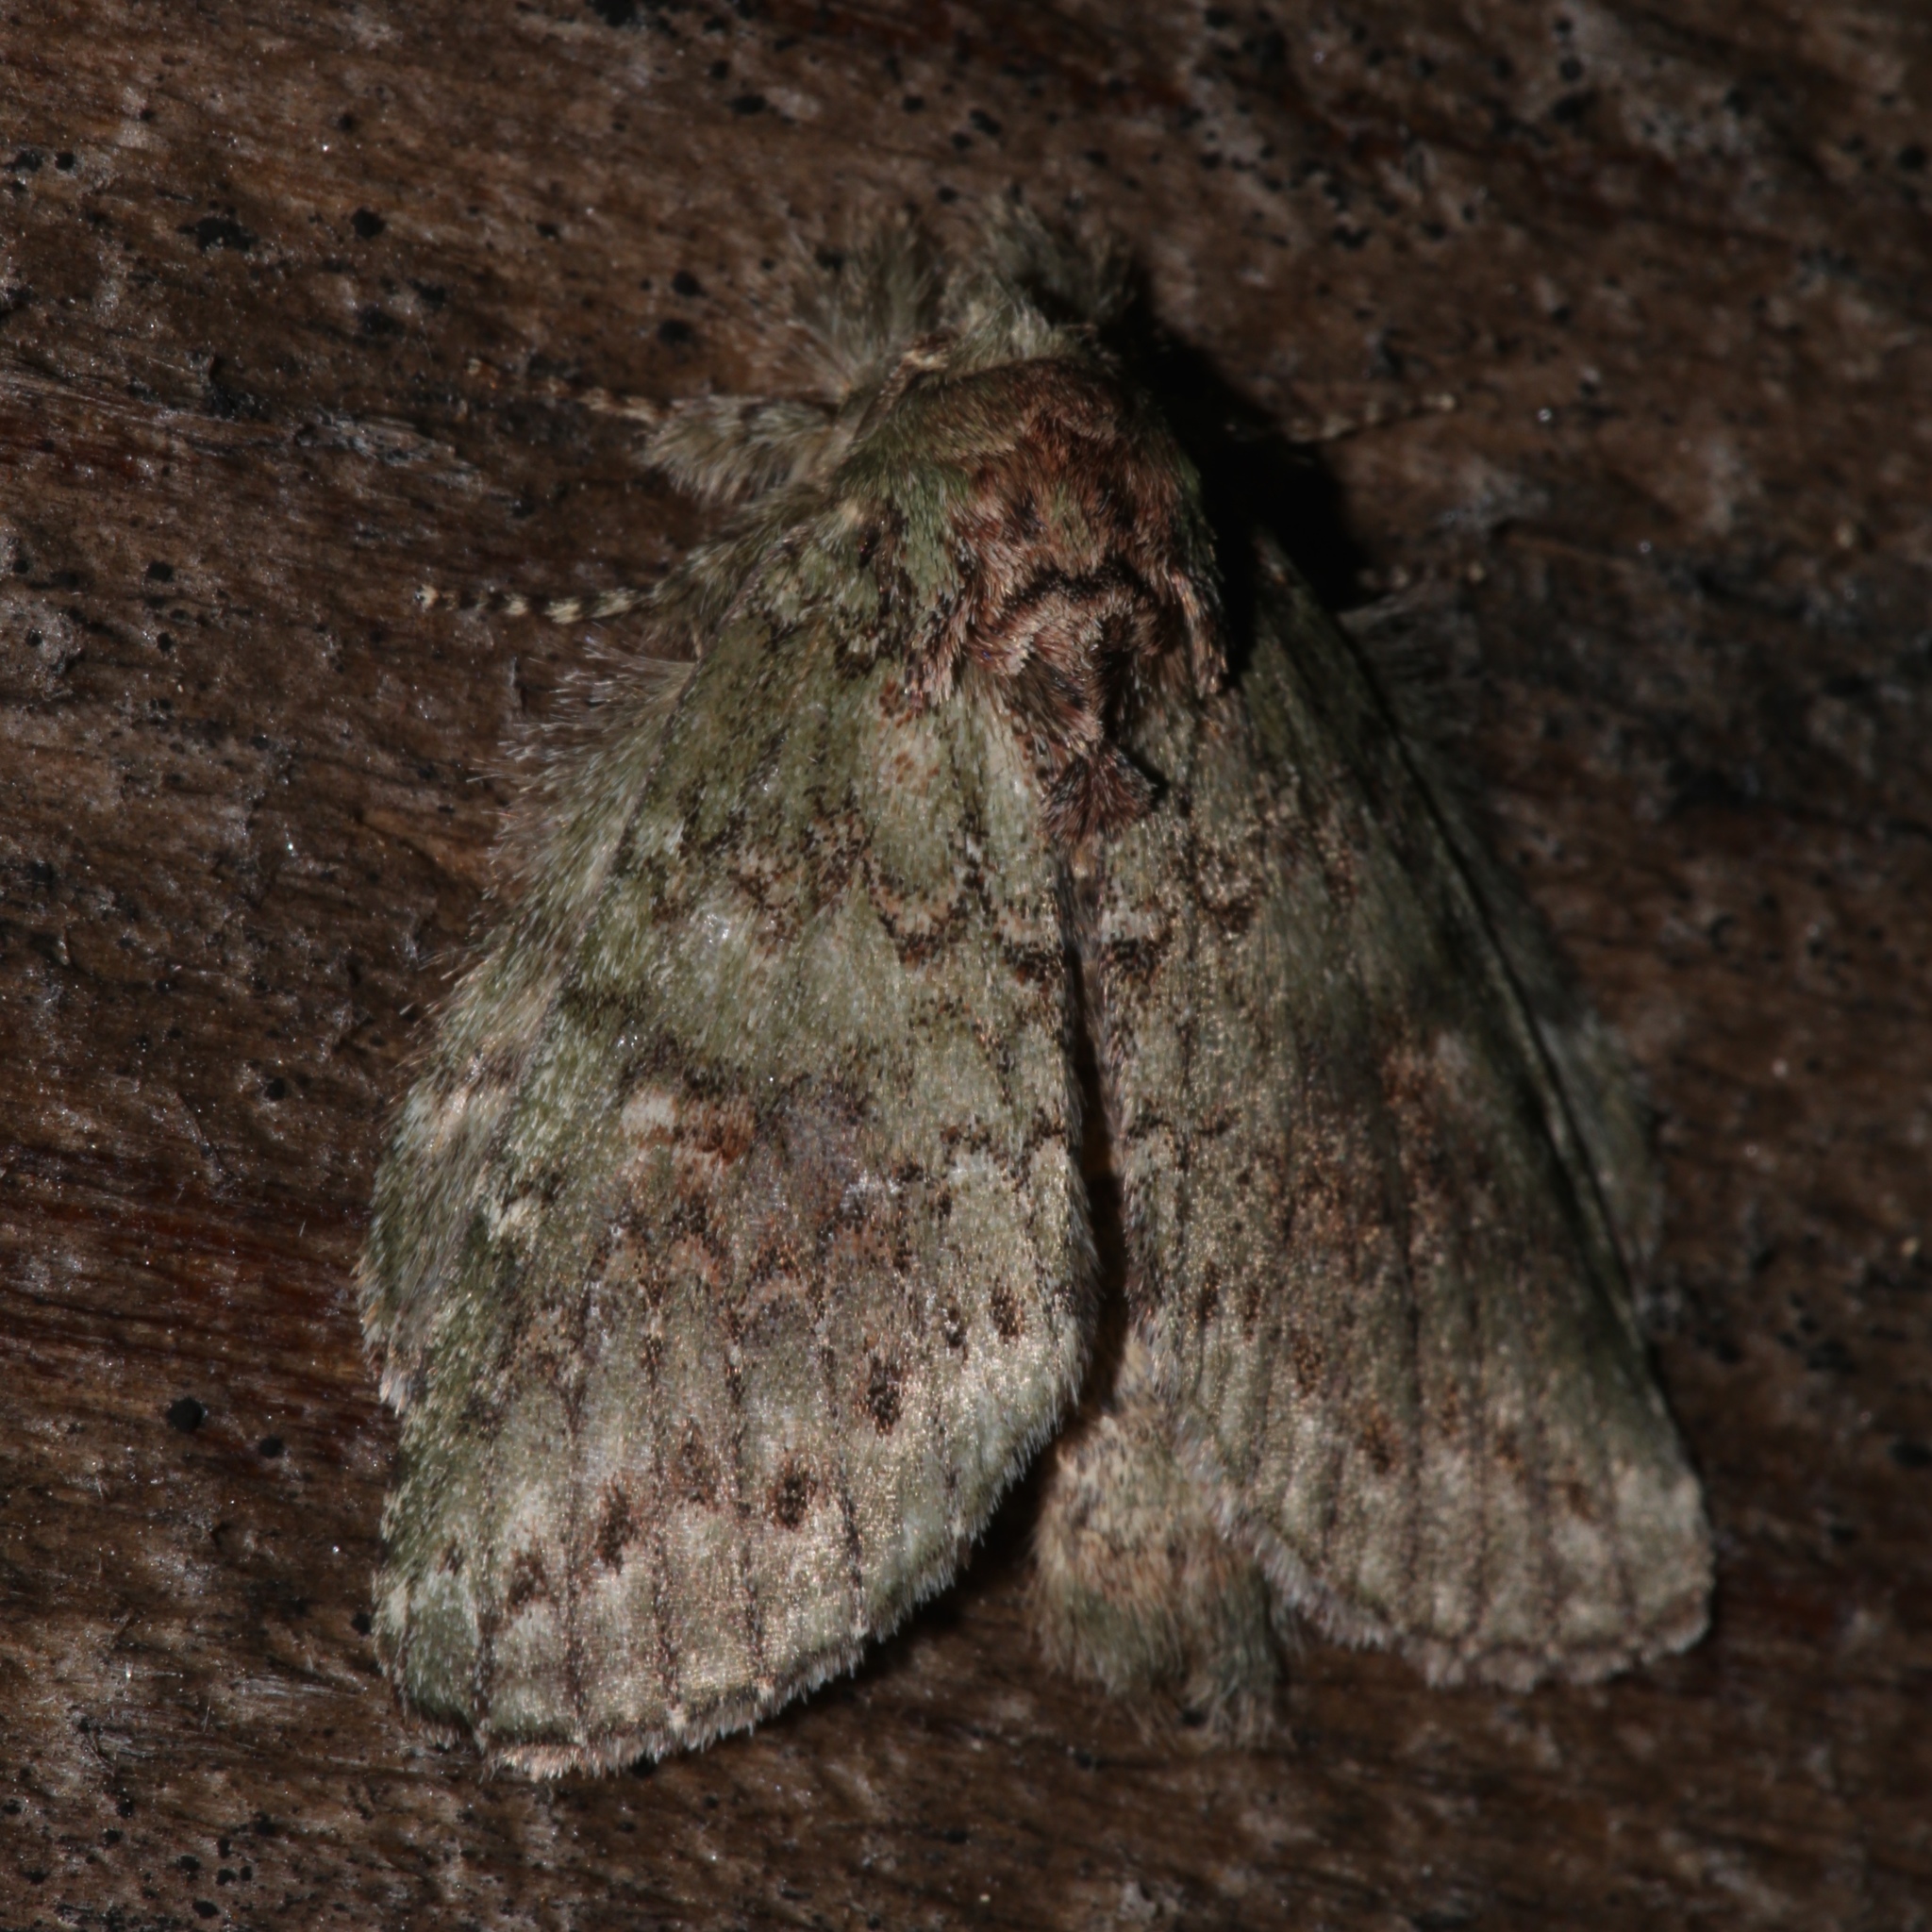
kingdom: Animalia
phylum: Arthropoda
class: Insecta
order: Lepidoptera
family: Notodontidae
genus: Disphragis
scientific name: Disphragis Cecrita biundata
